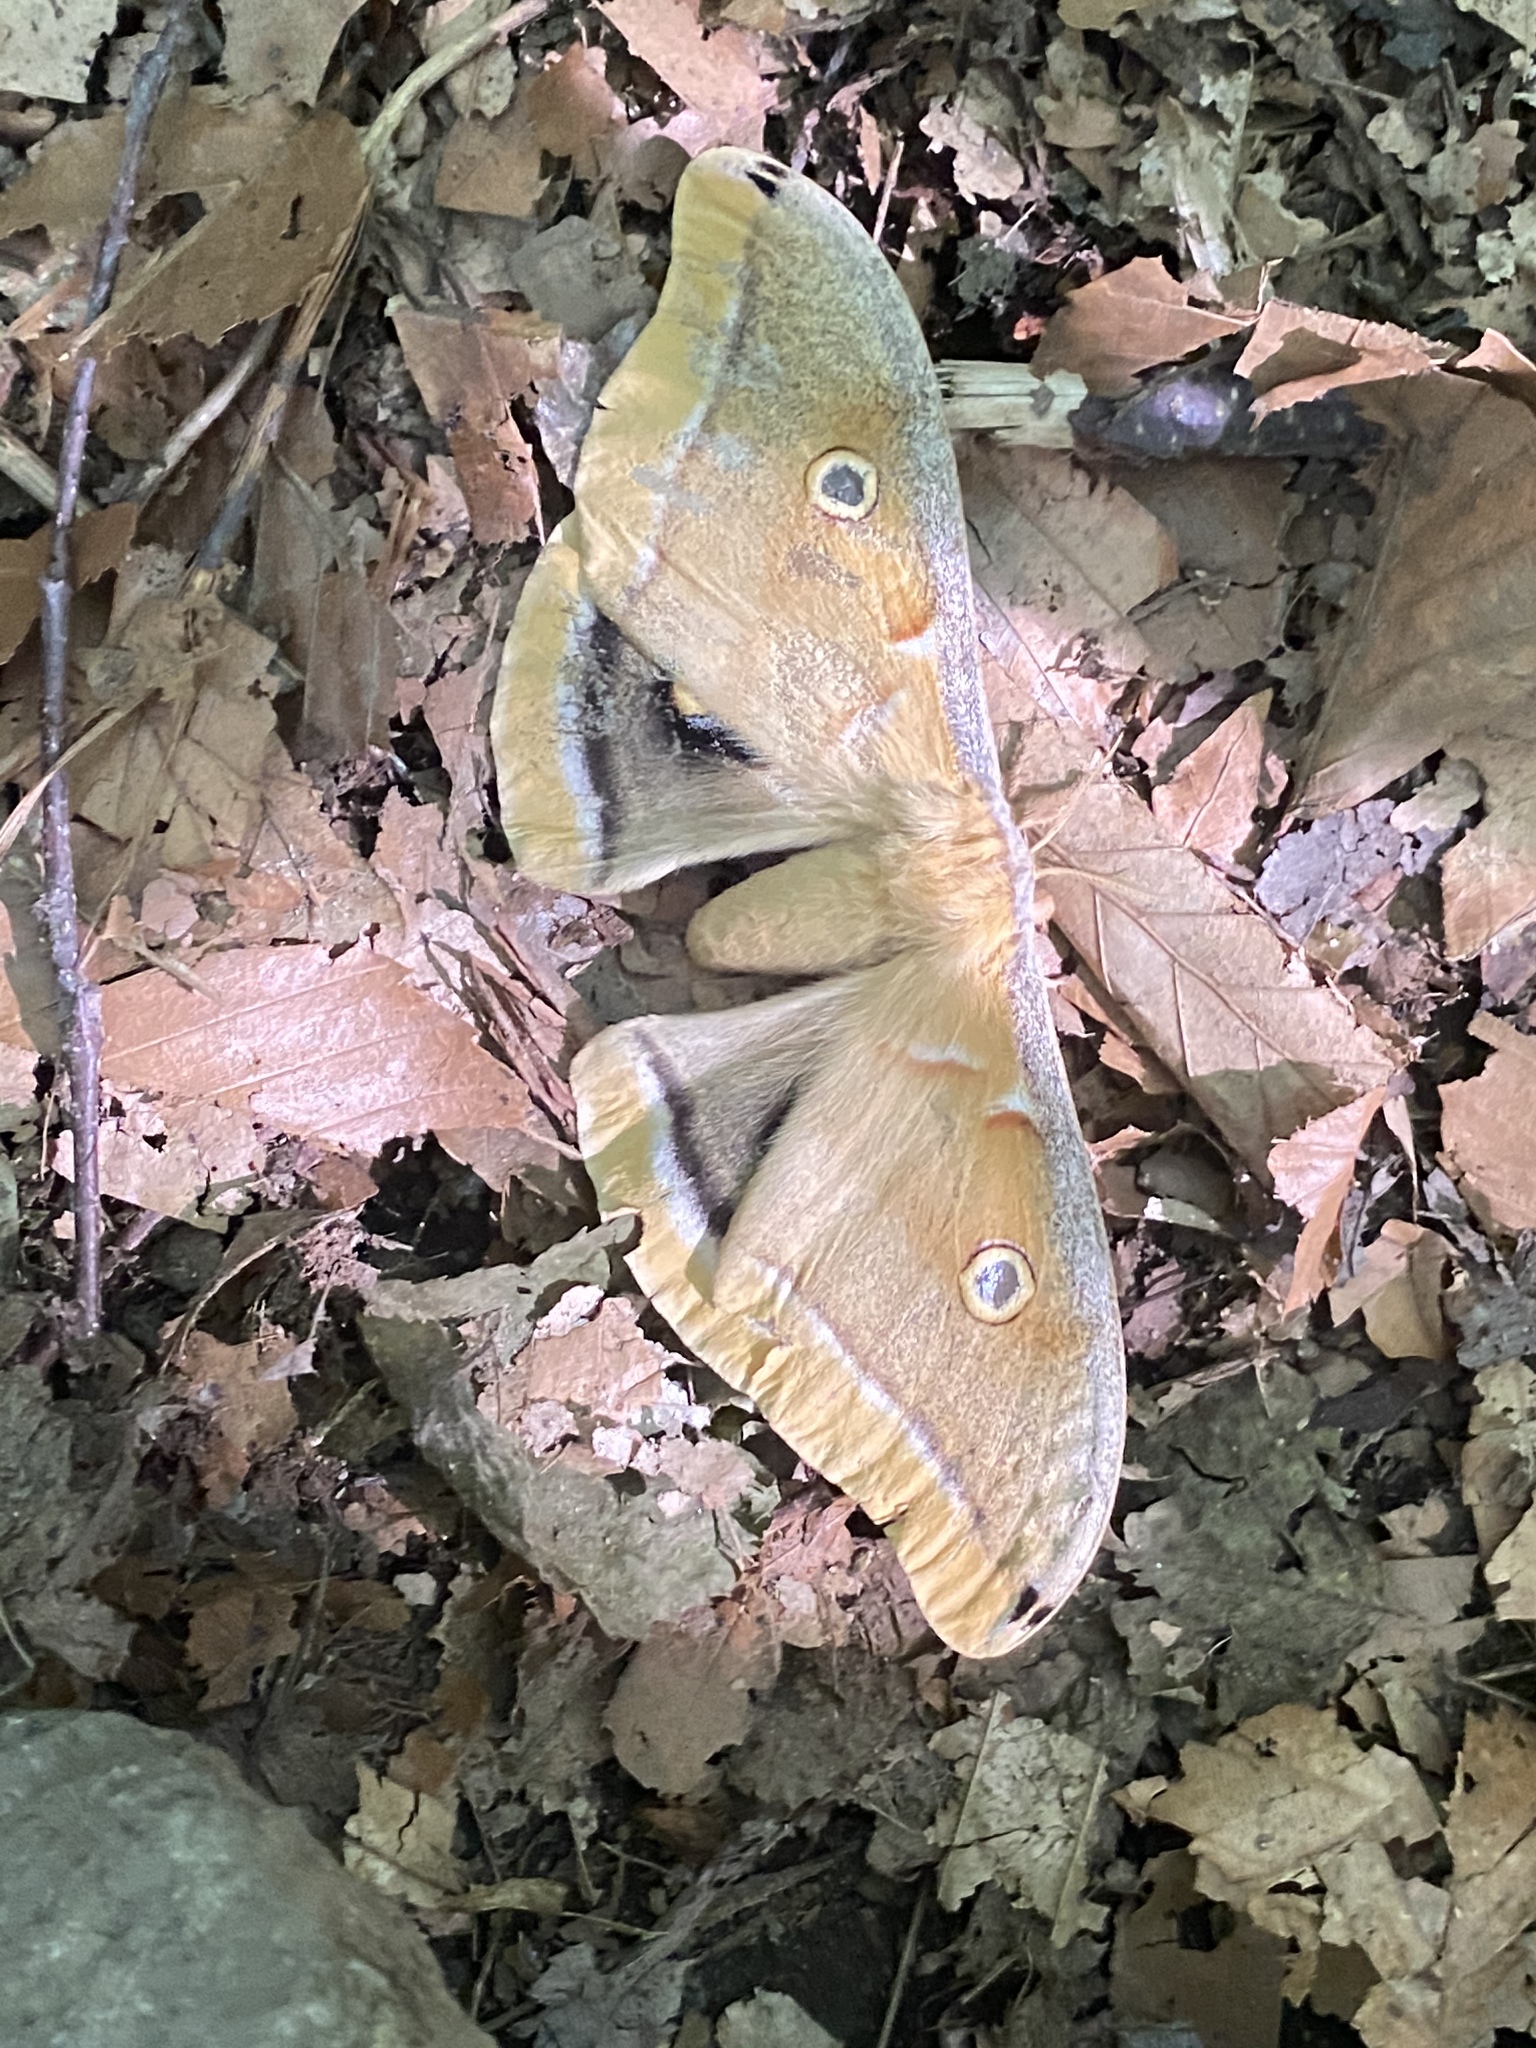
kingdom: Animalia
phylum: Arthropoda
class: Insecta
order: Lepidoptera
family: Saturniidae
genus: Antheraea
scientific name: Antheraea polyphemus
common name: Polyphemus moth
